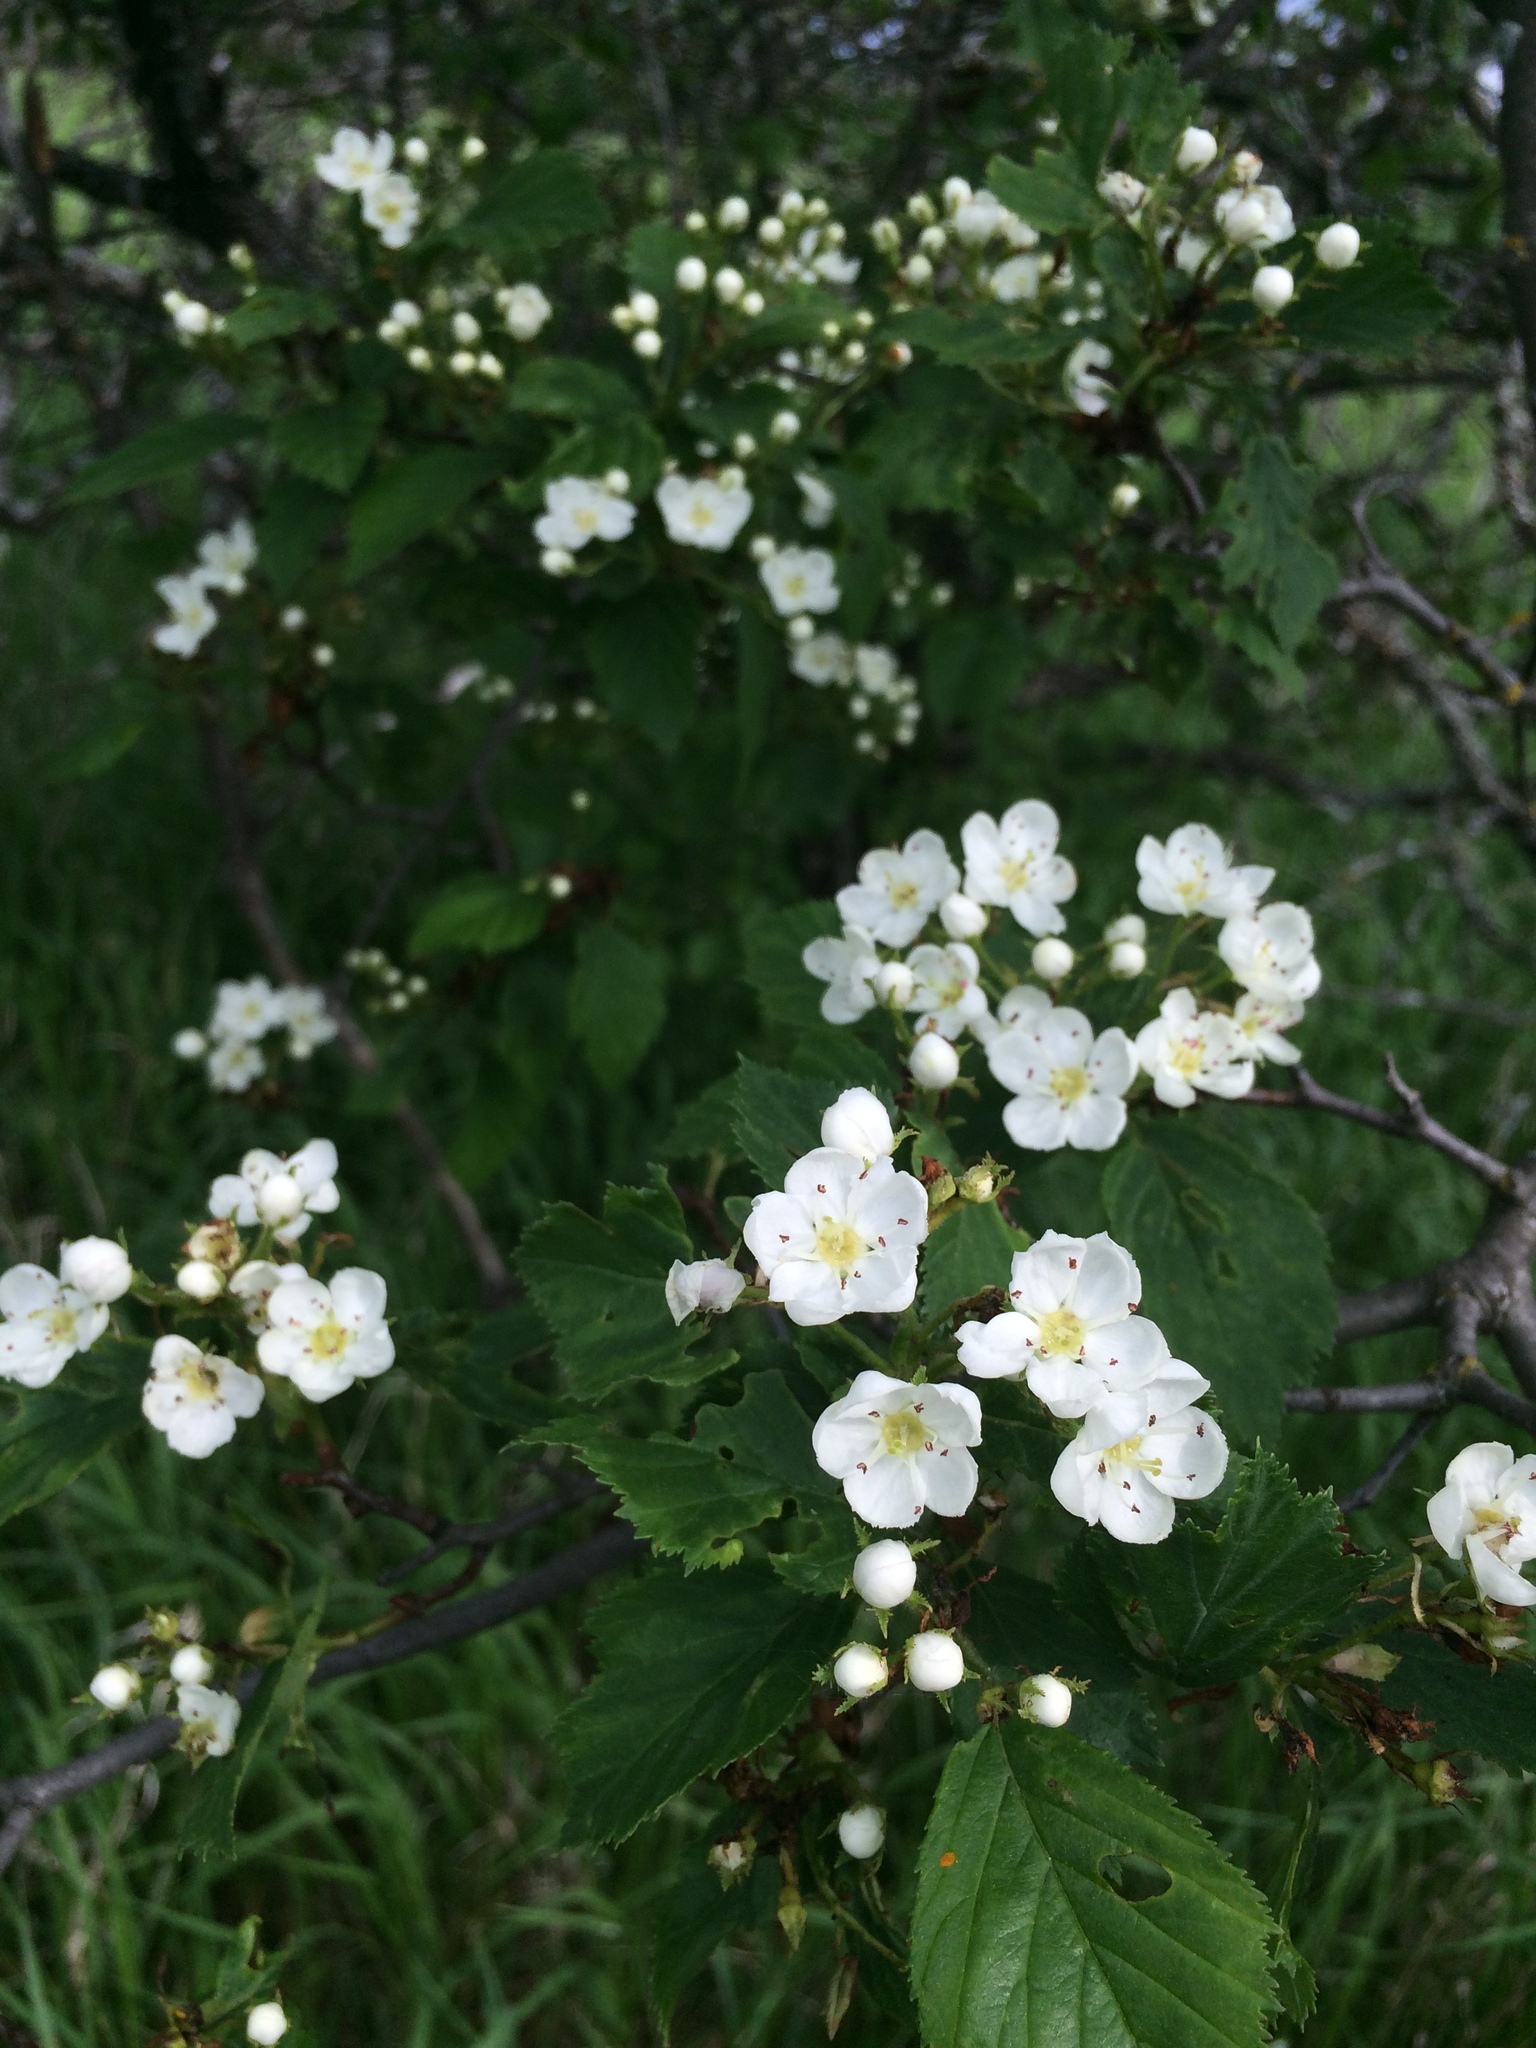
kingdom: Plantae
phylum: Tracheophyta
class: Magnoliopsida
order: Rosales
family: Rosaceae
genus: Crataegus
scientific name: Crataegus macracantha
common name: Large-thorn hawthorn
